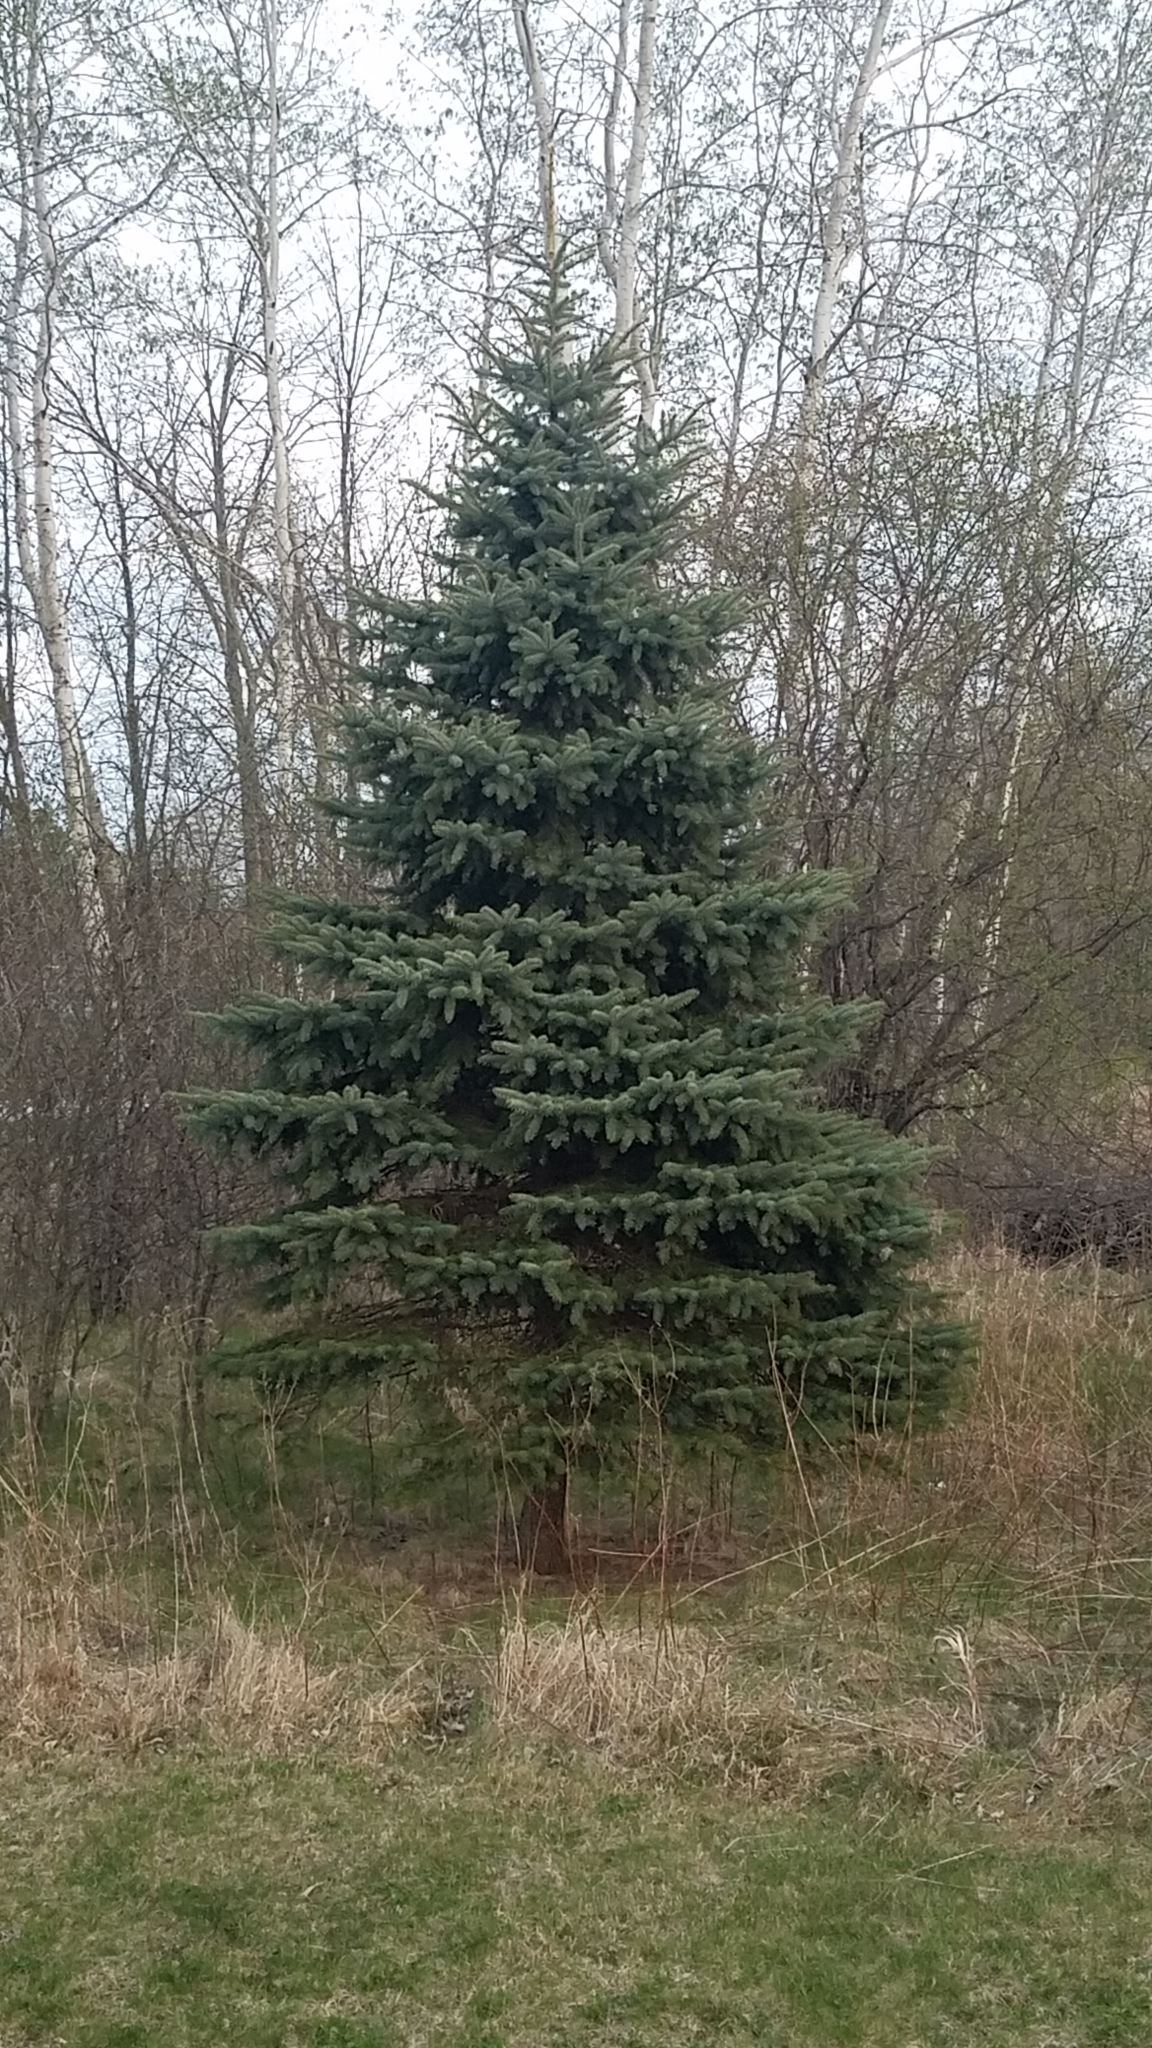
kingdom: Plantae
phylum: Tracheophyta
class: Pinopsida
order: Pinales
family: Pinaceae
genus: Picea
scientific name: Picea pungens
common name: Colorado spruce
